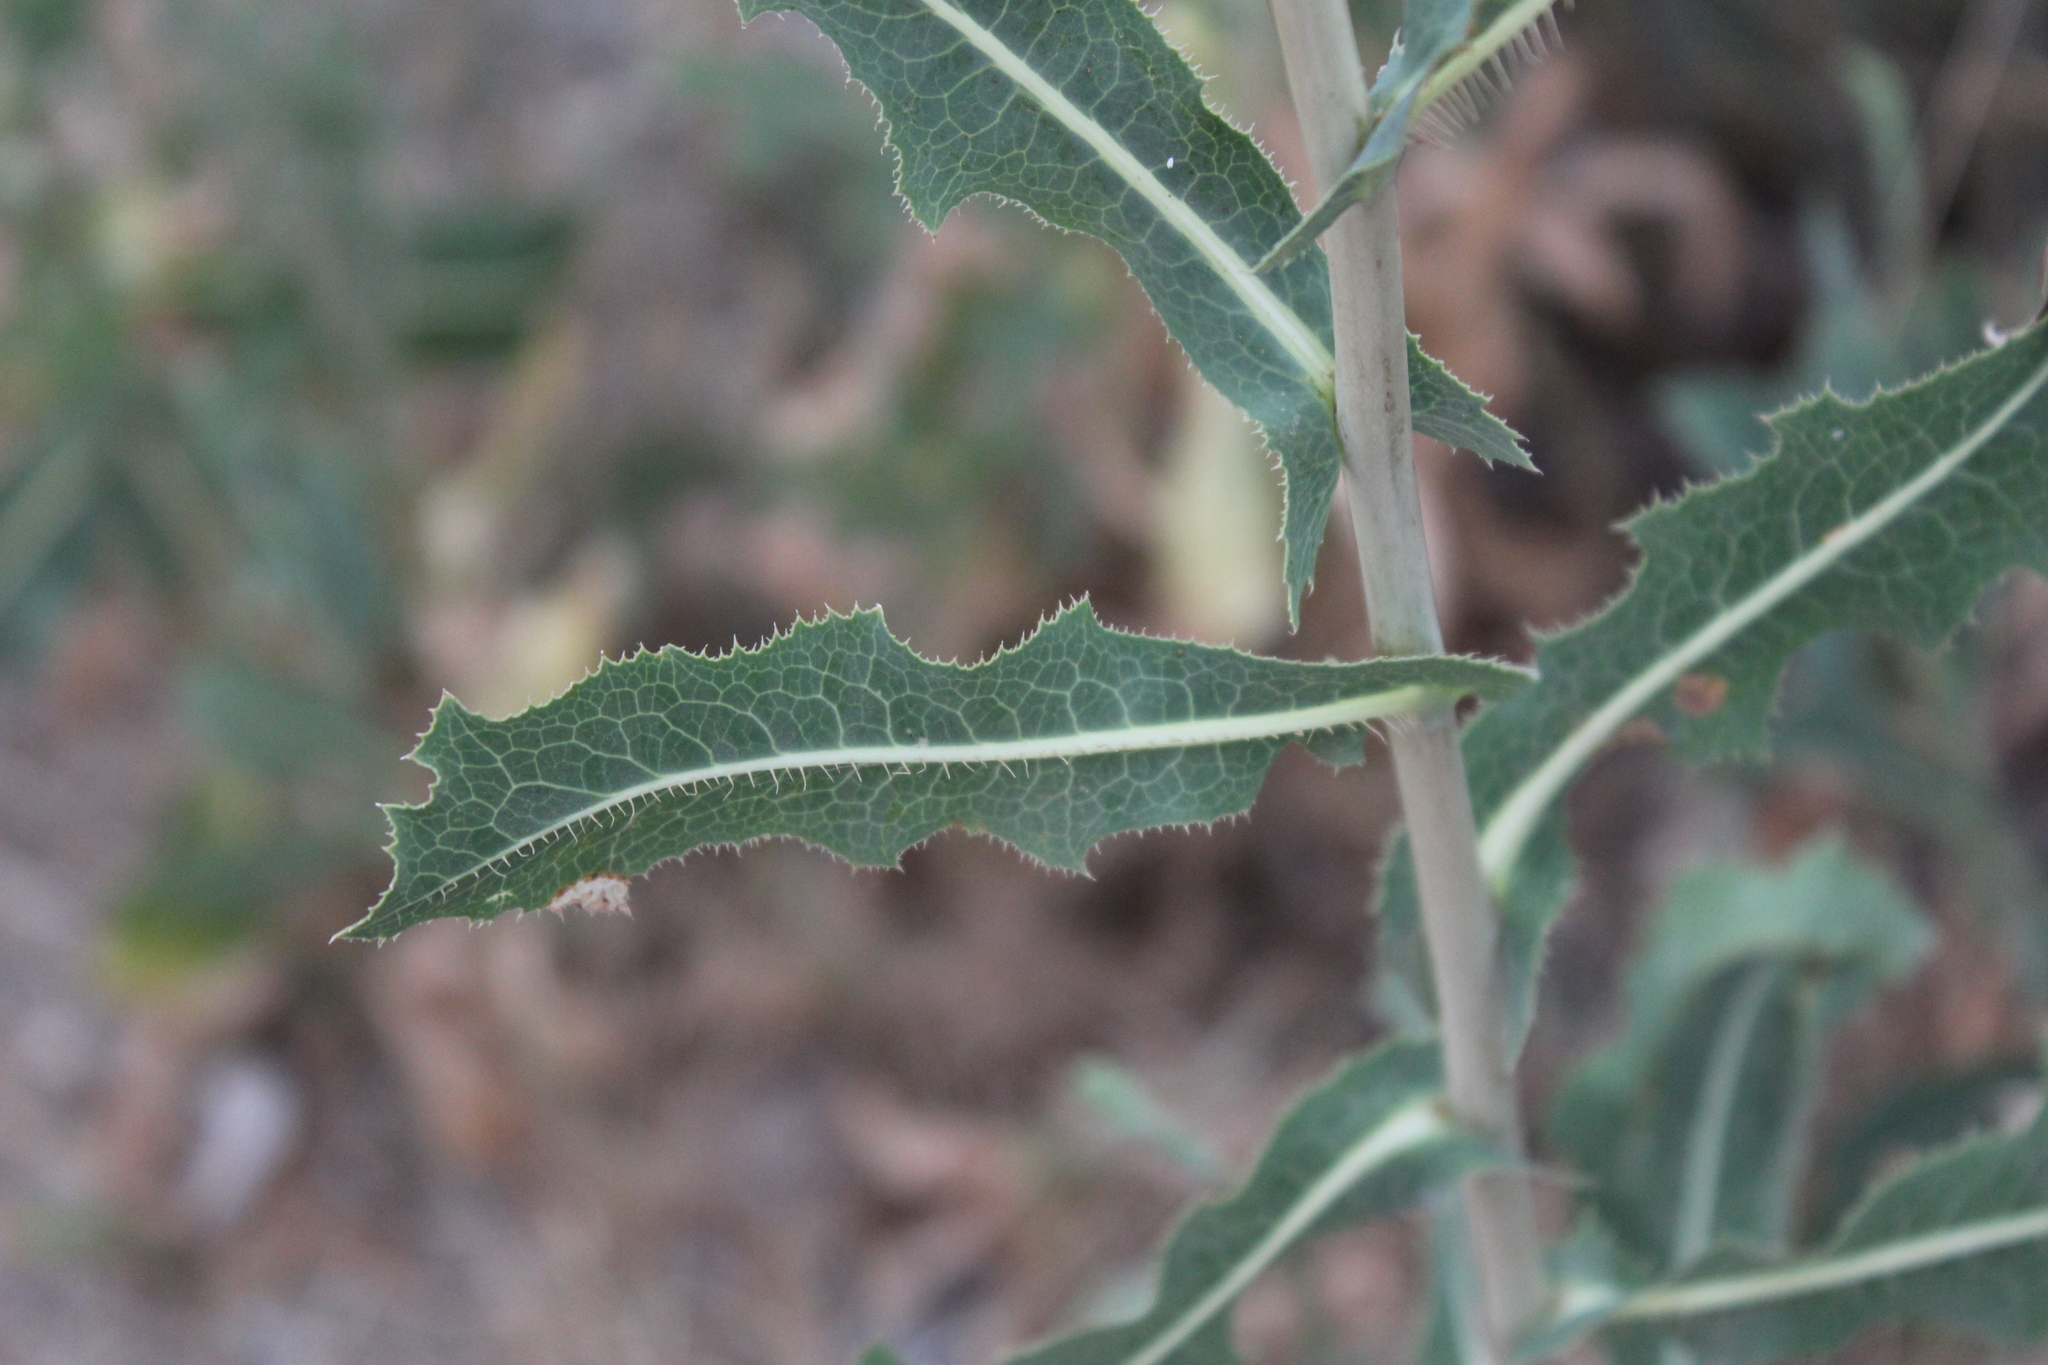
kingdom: Plantae
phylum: Tracheophyta
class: Magnoliopsida
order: Asterales
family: Asteraceae
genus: Lactuca
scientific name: Lactuca serriola
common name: Prickly lettuce
